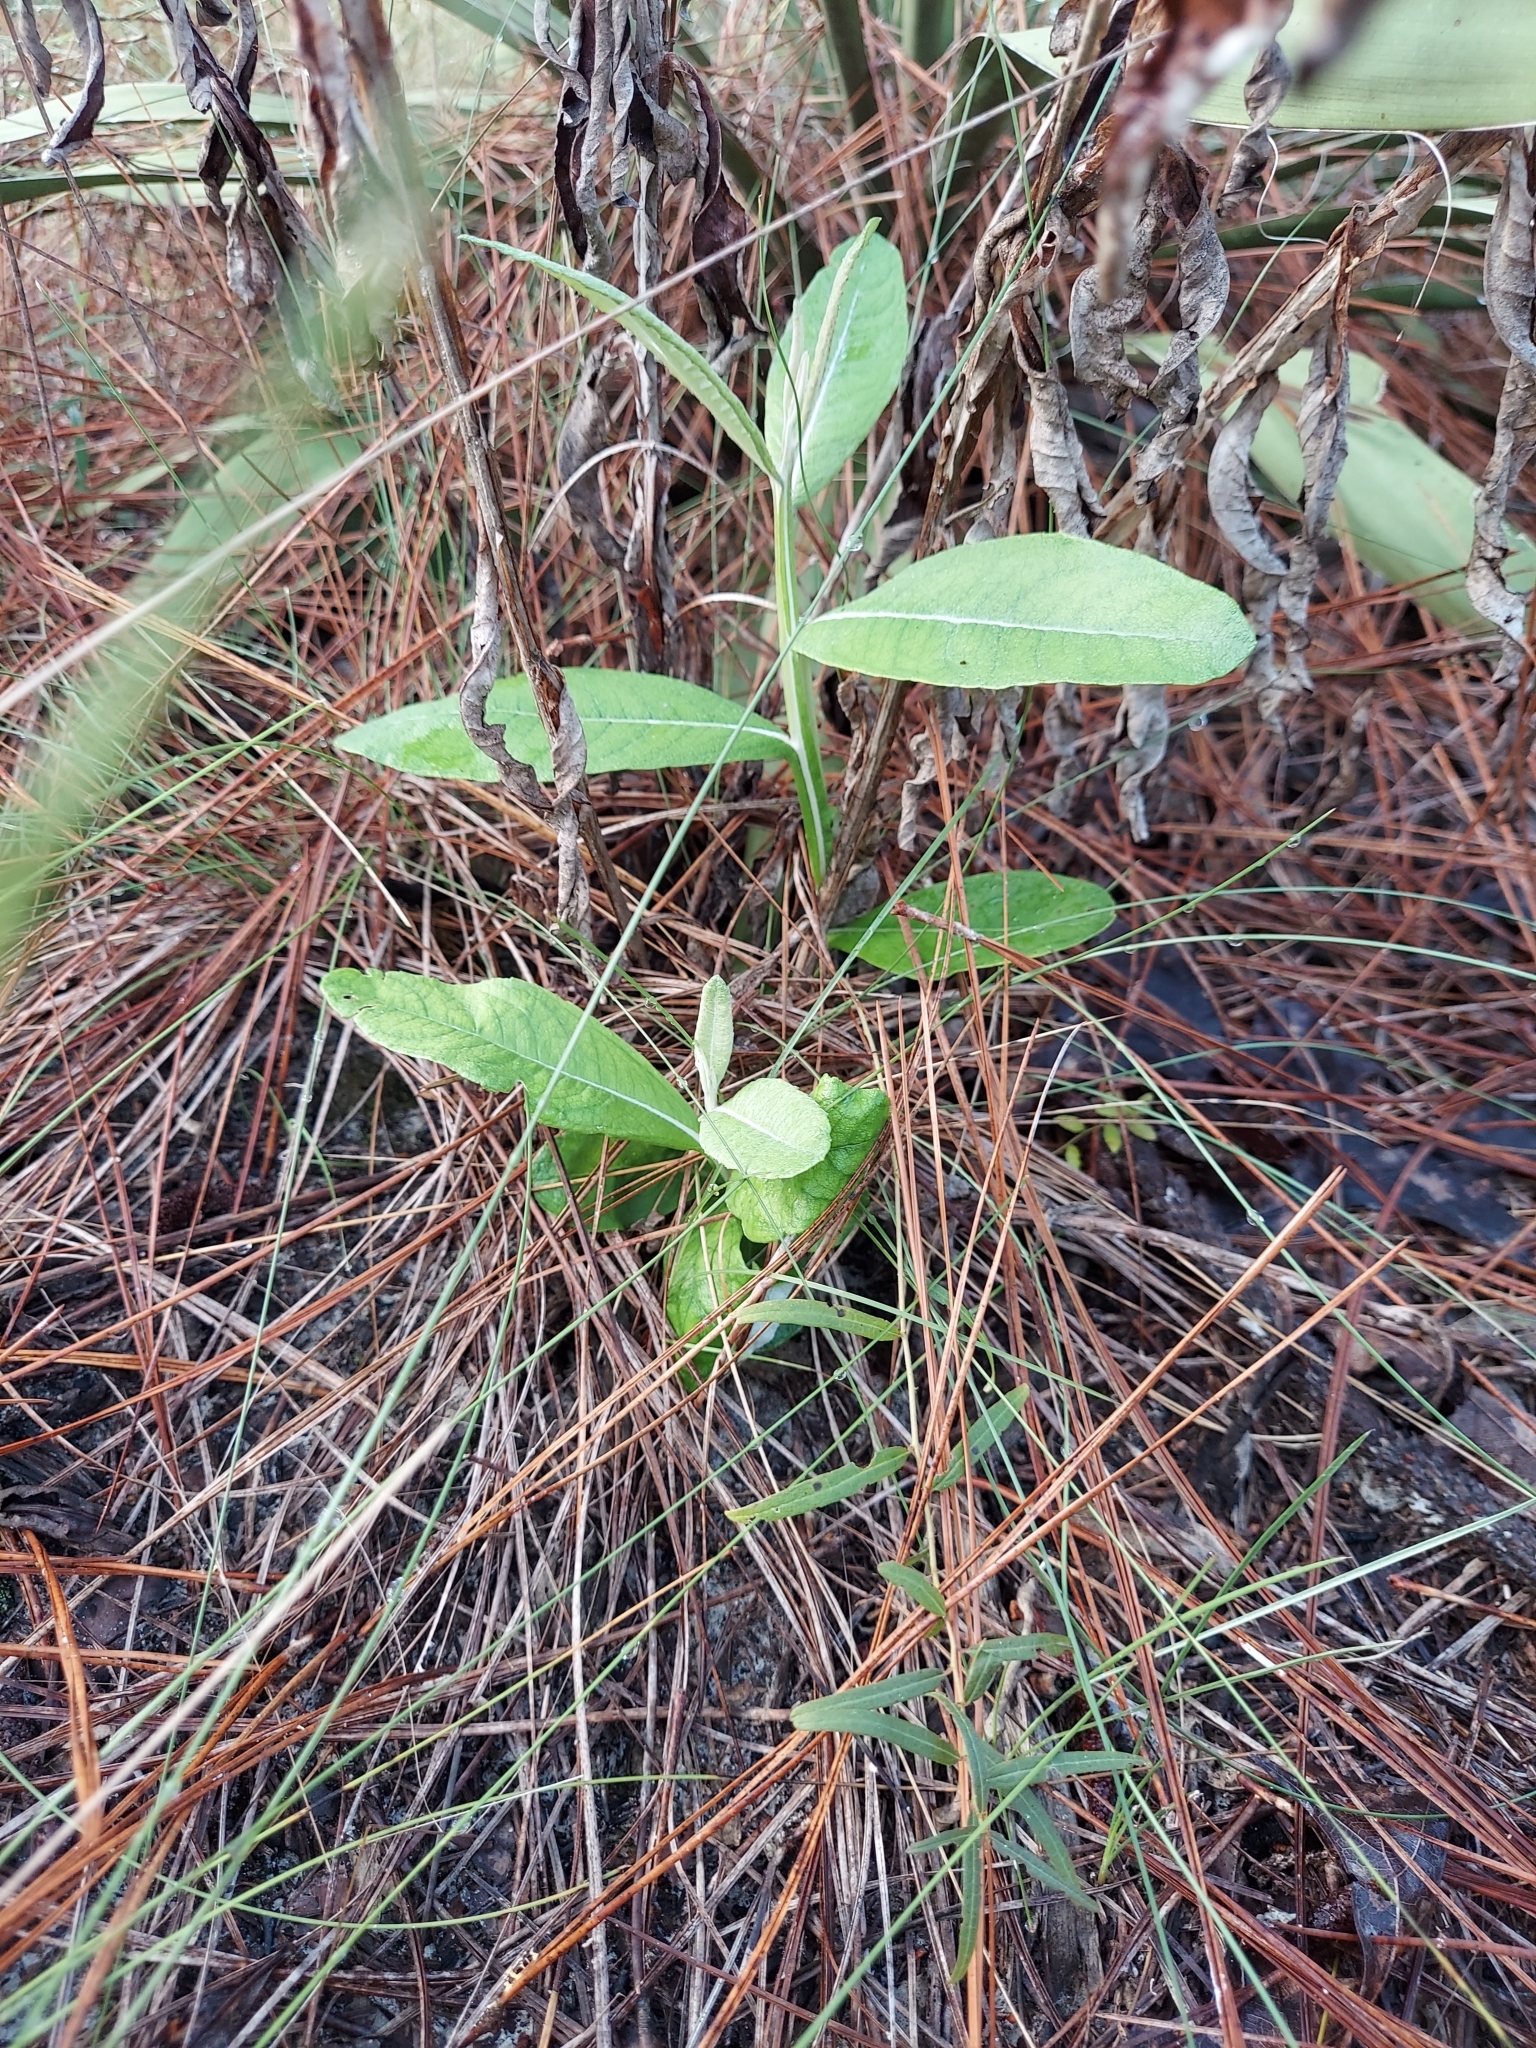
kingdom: Plantae
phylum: Tracheophyta
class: Magnoliopsida
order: Asterales
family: Asteraceae
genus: Pterocaulon
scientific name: Pterocaulon pycnostachyum
